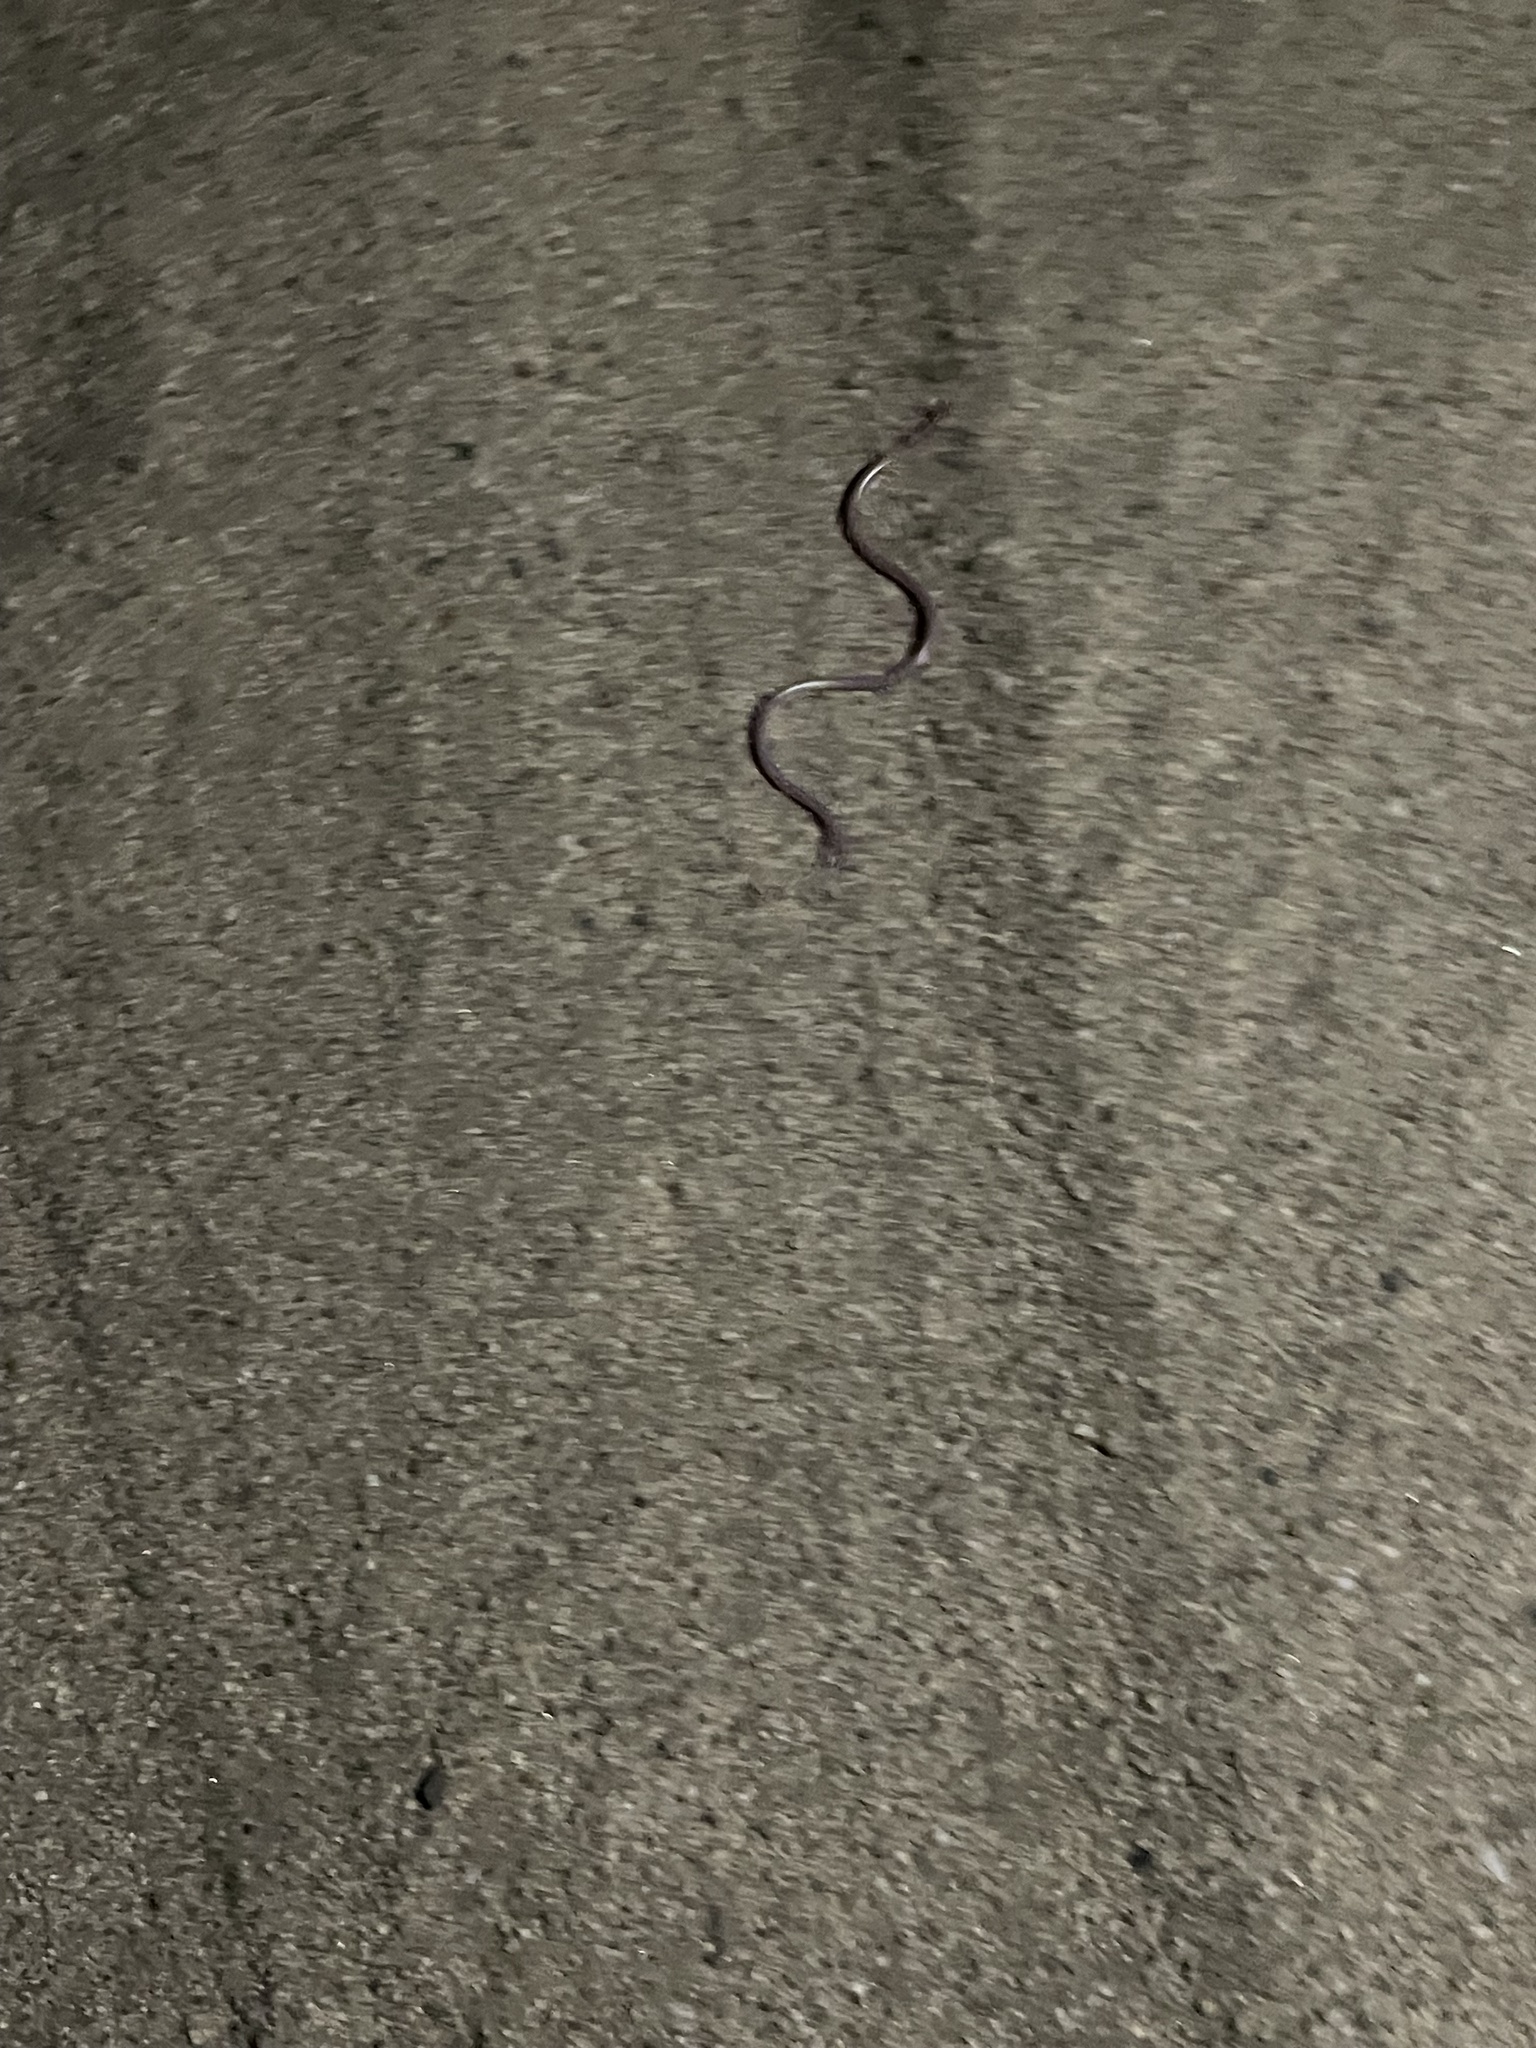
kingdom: Animalia
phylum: Chordata
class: Squamata
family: Leptotyphlopidae
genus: Rena
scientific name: Rena humilis
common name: Western threadsnake
